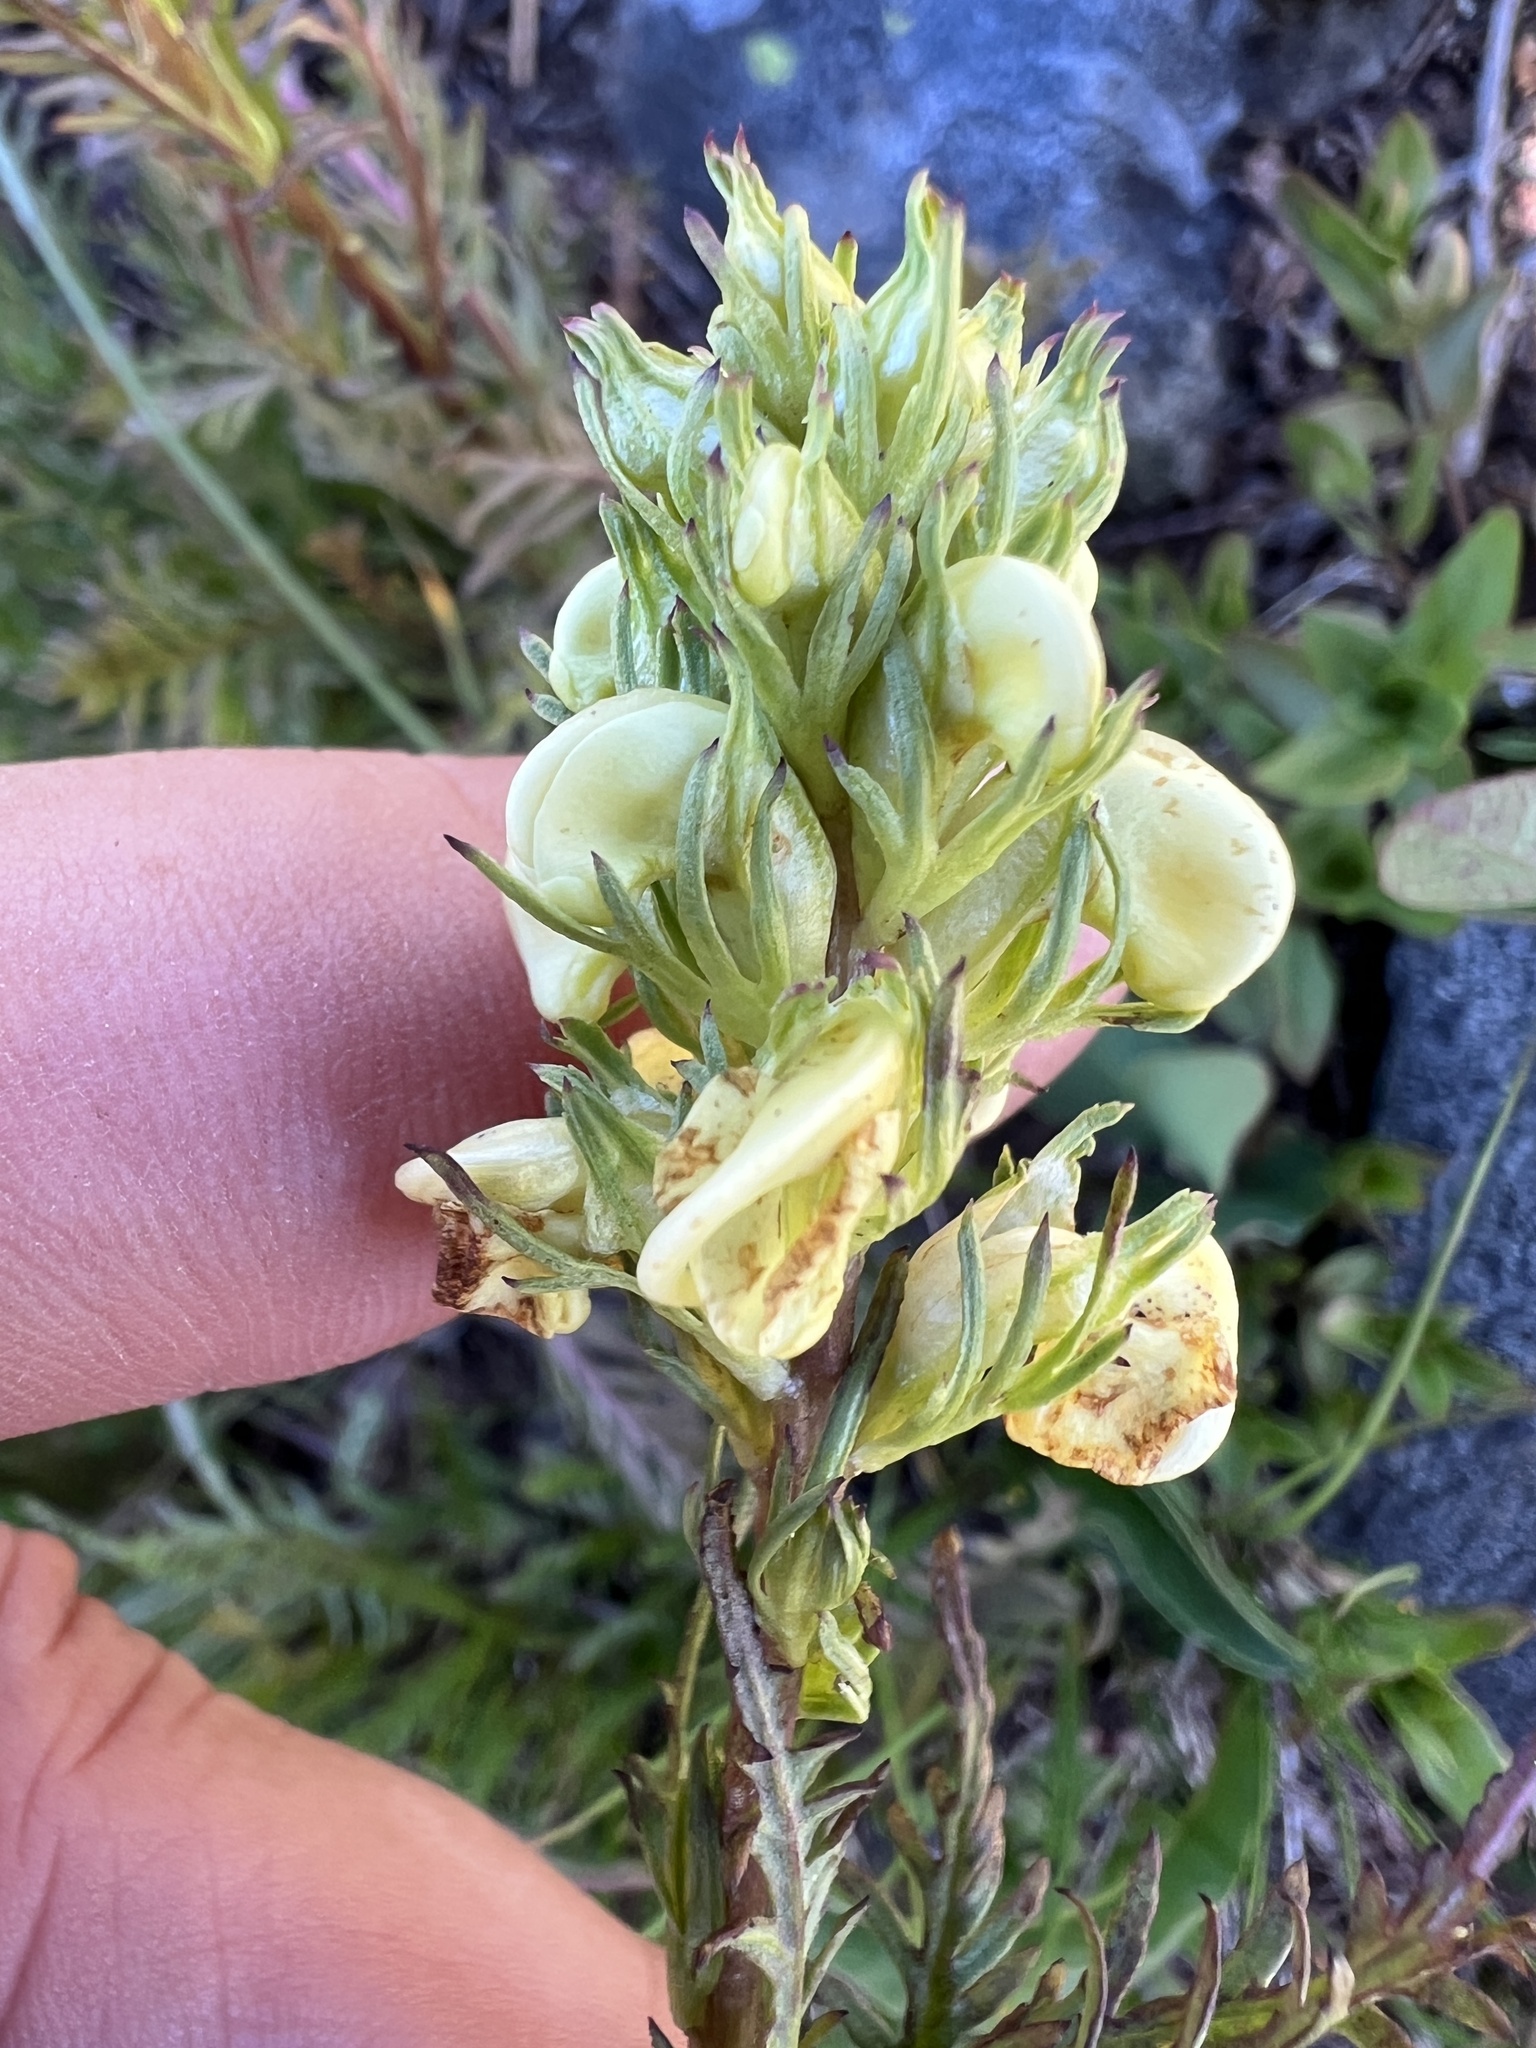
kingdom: Plantae
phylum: Tracheophyta
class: Magnoliopsida
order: Lamiales
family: Orobanchaceae
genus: Pedicularis
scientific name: Pedicularis contorta
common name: Coiled lousewort
